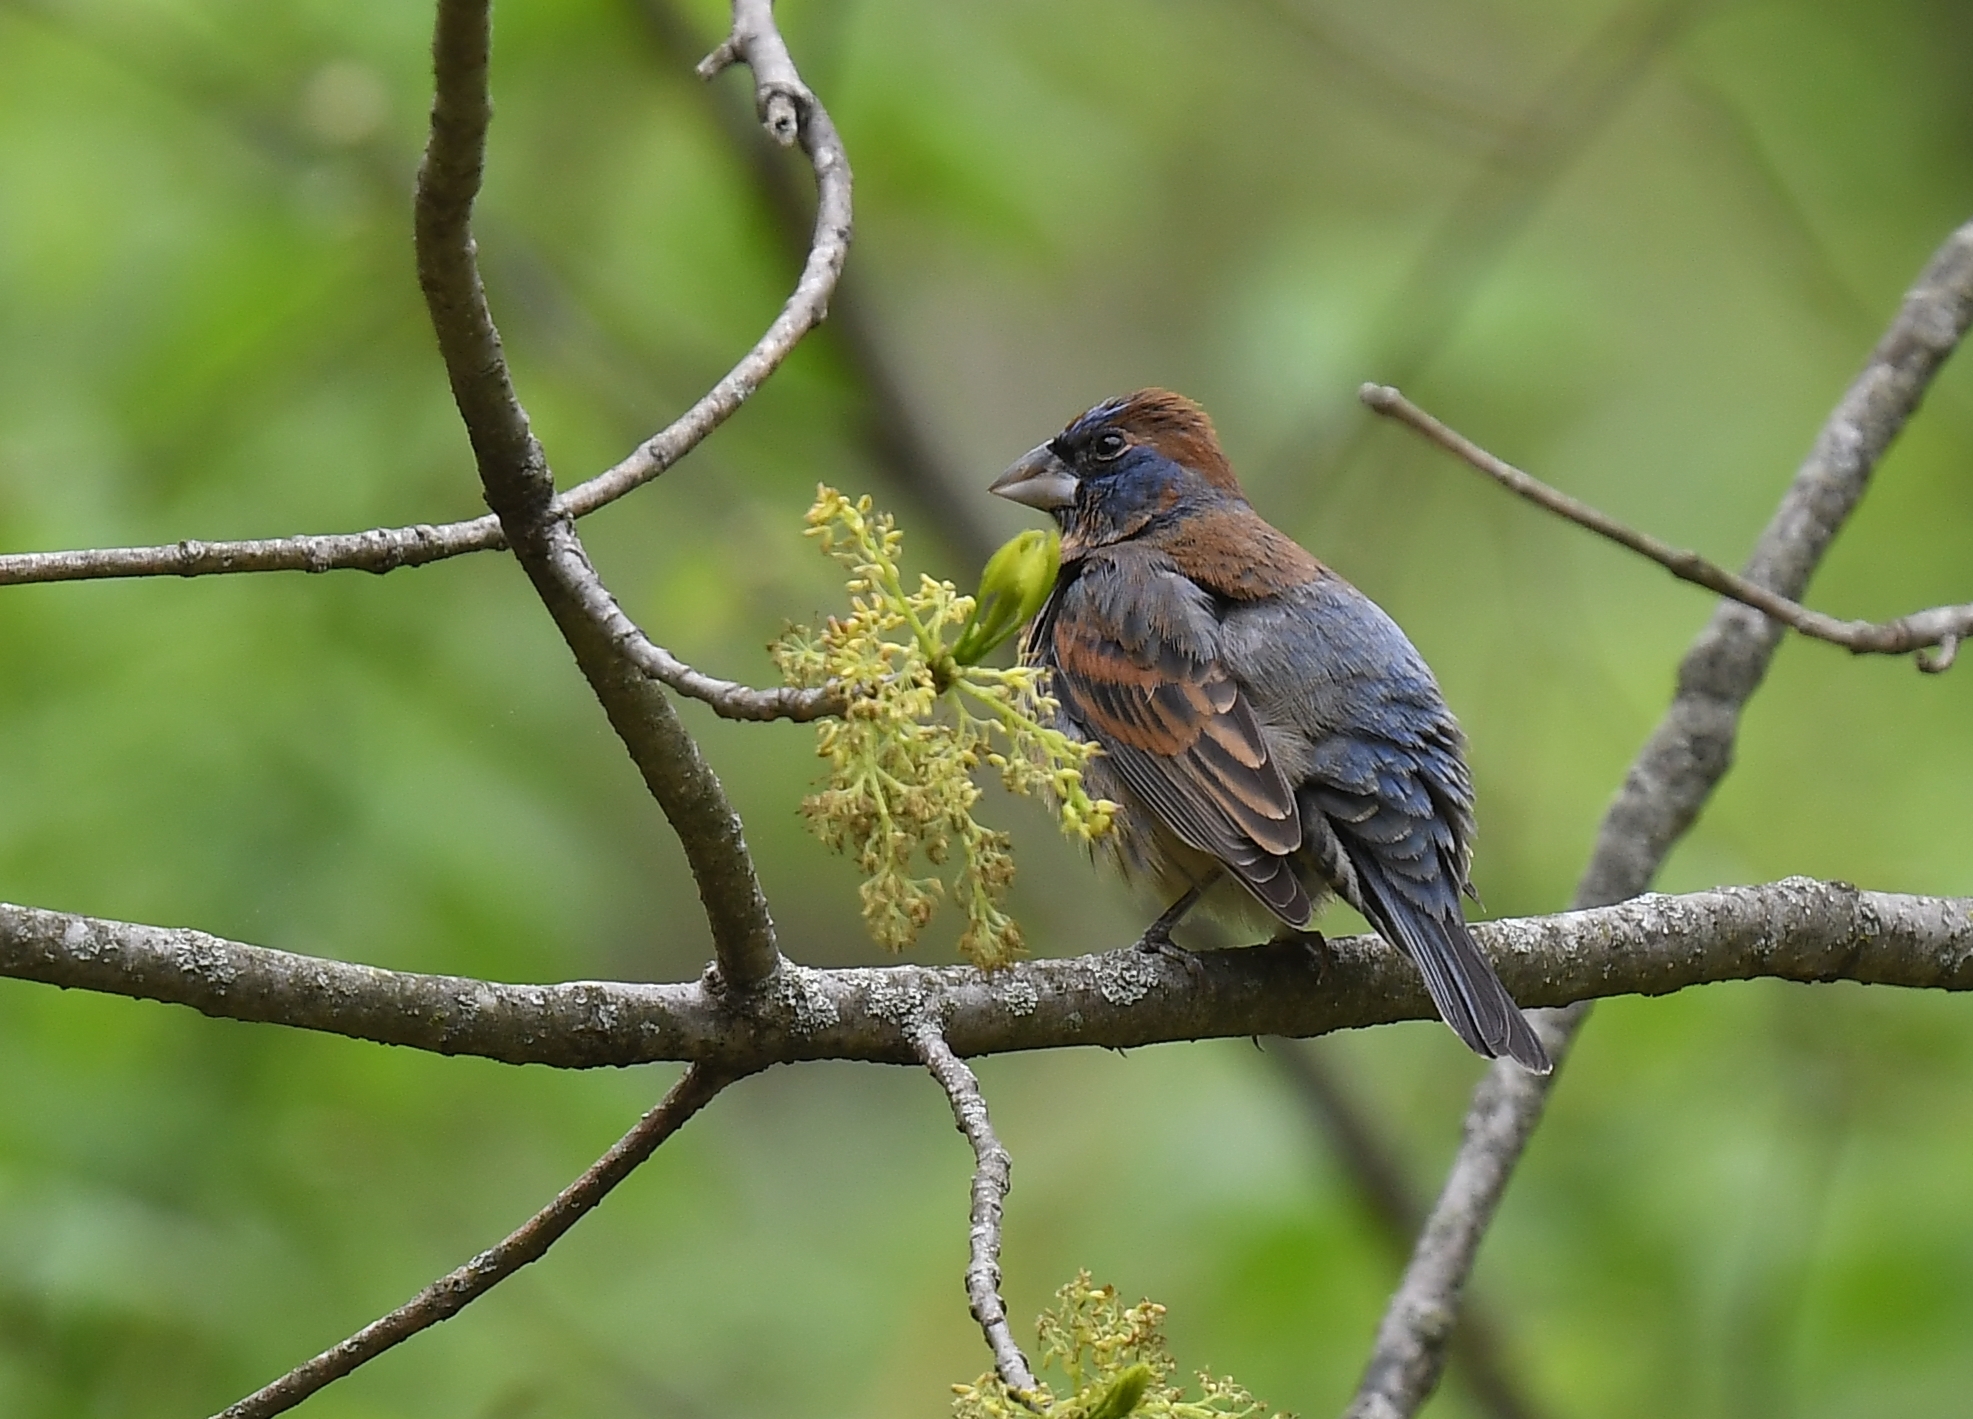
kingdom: Animalia
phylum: Chordata
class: Aves
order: Passeriformes
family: Cardinalidae
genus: Passerina
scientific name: Passerina caerulea
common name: Blue grosbeak
